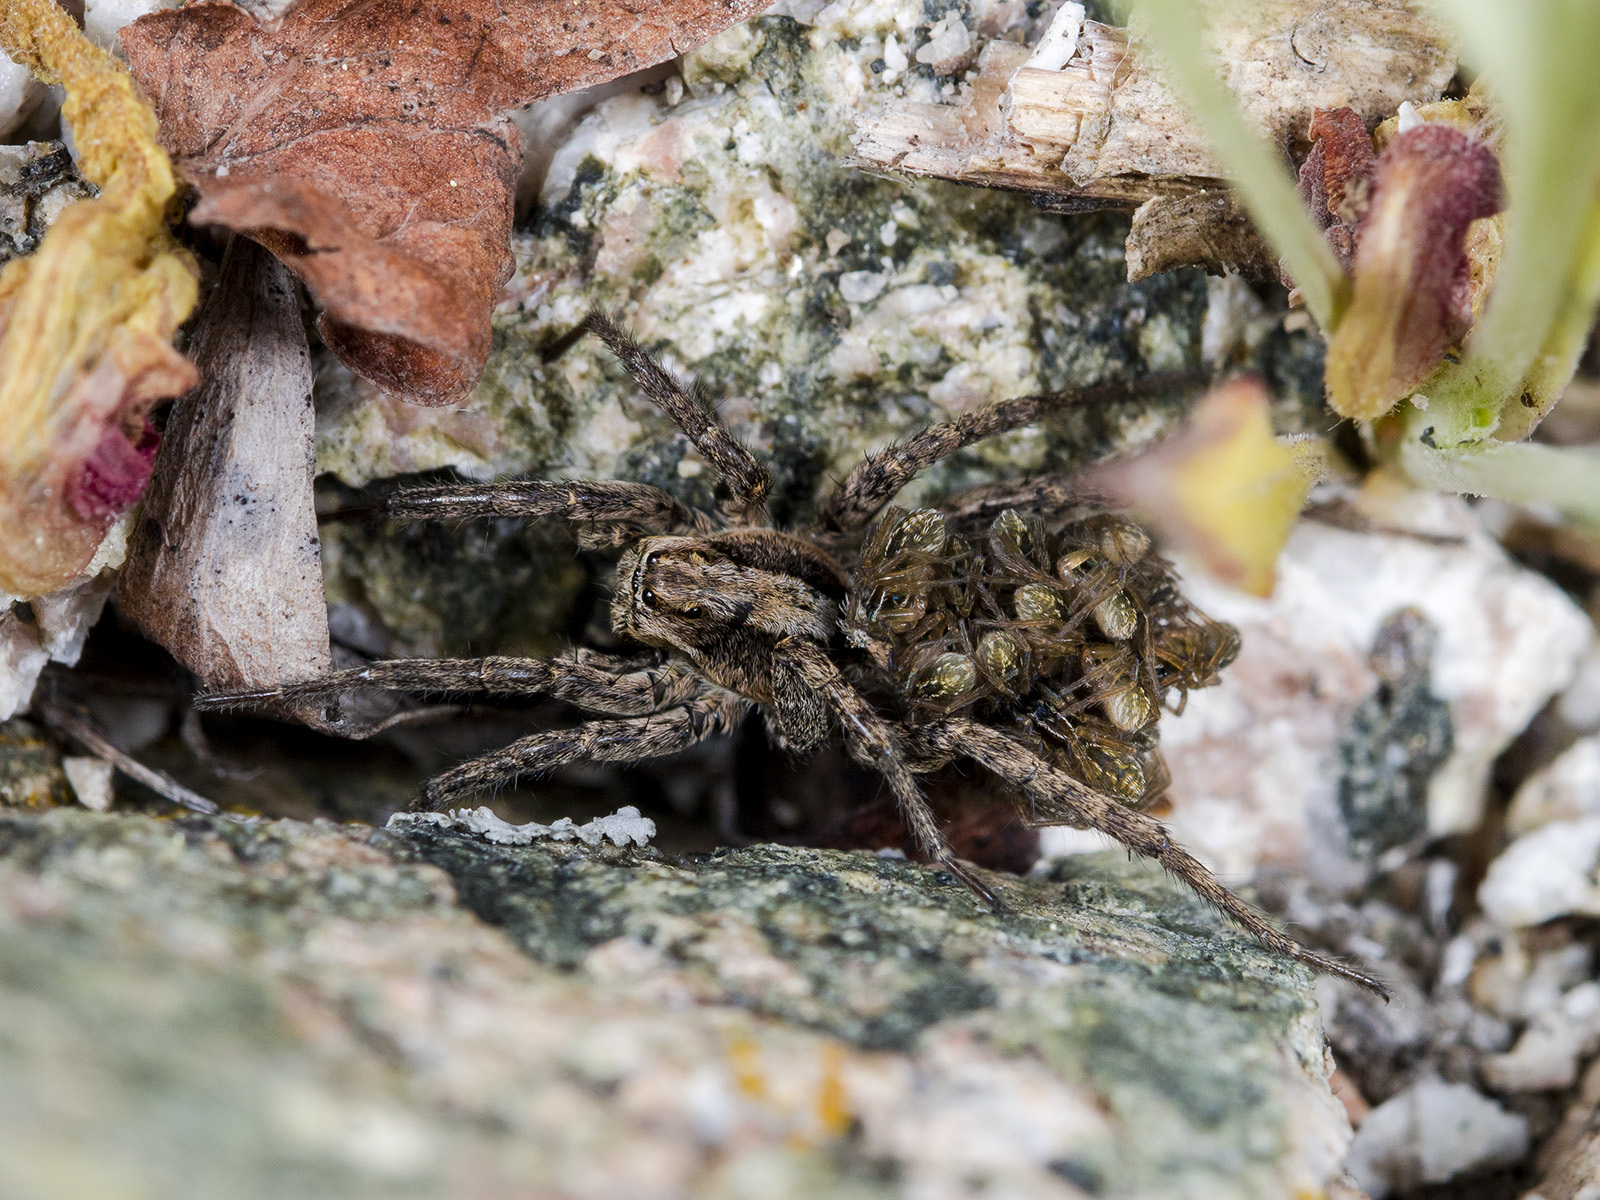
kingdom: Animalia
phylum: Arthropoda
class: Arachnida
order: Araneae
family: Lycosidae
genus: Alopecosa
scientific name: Alopecosa cursor
